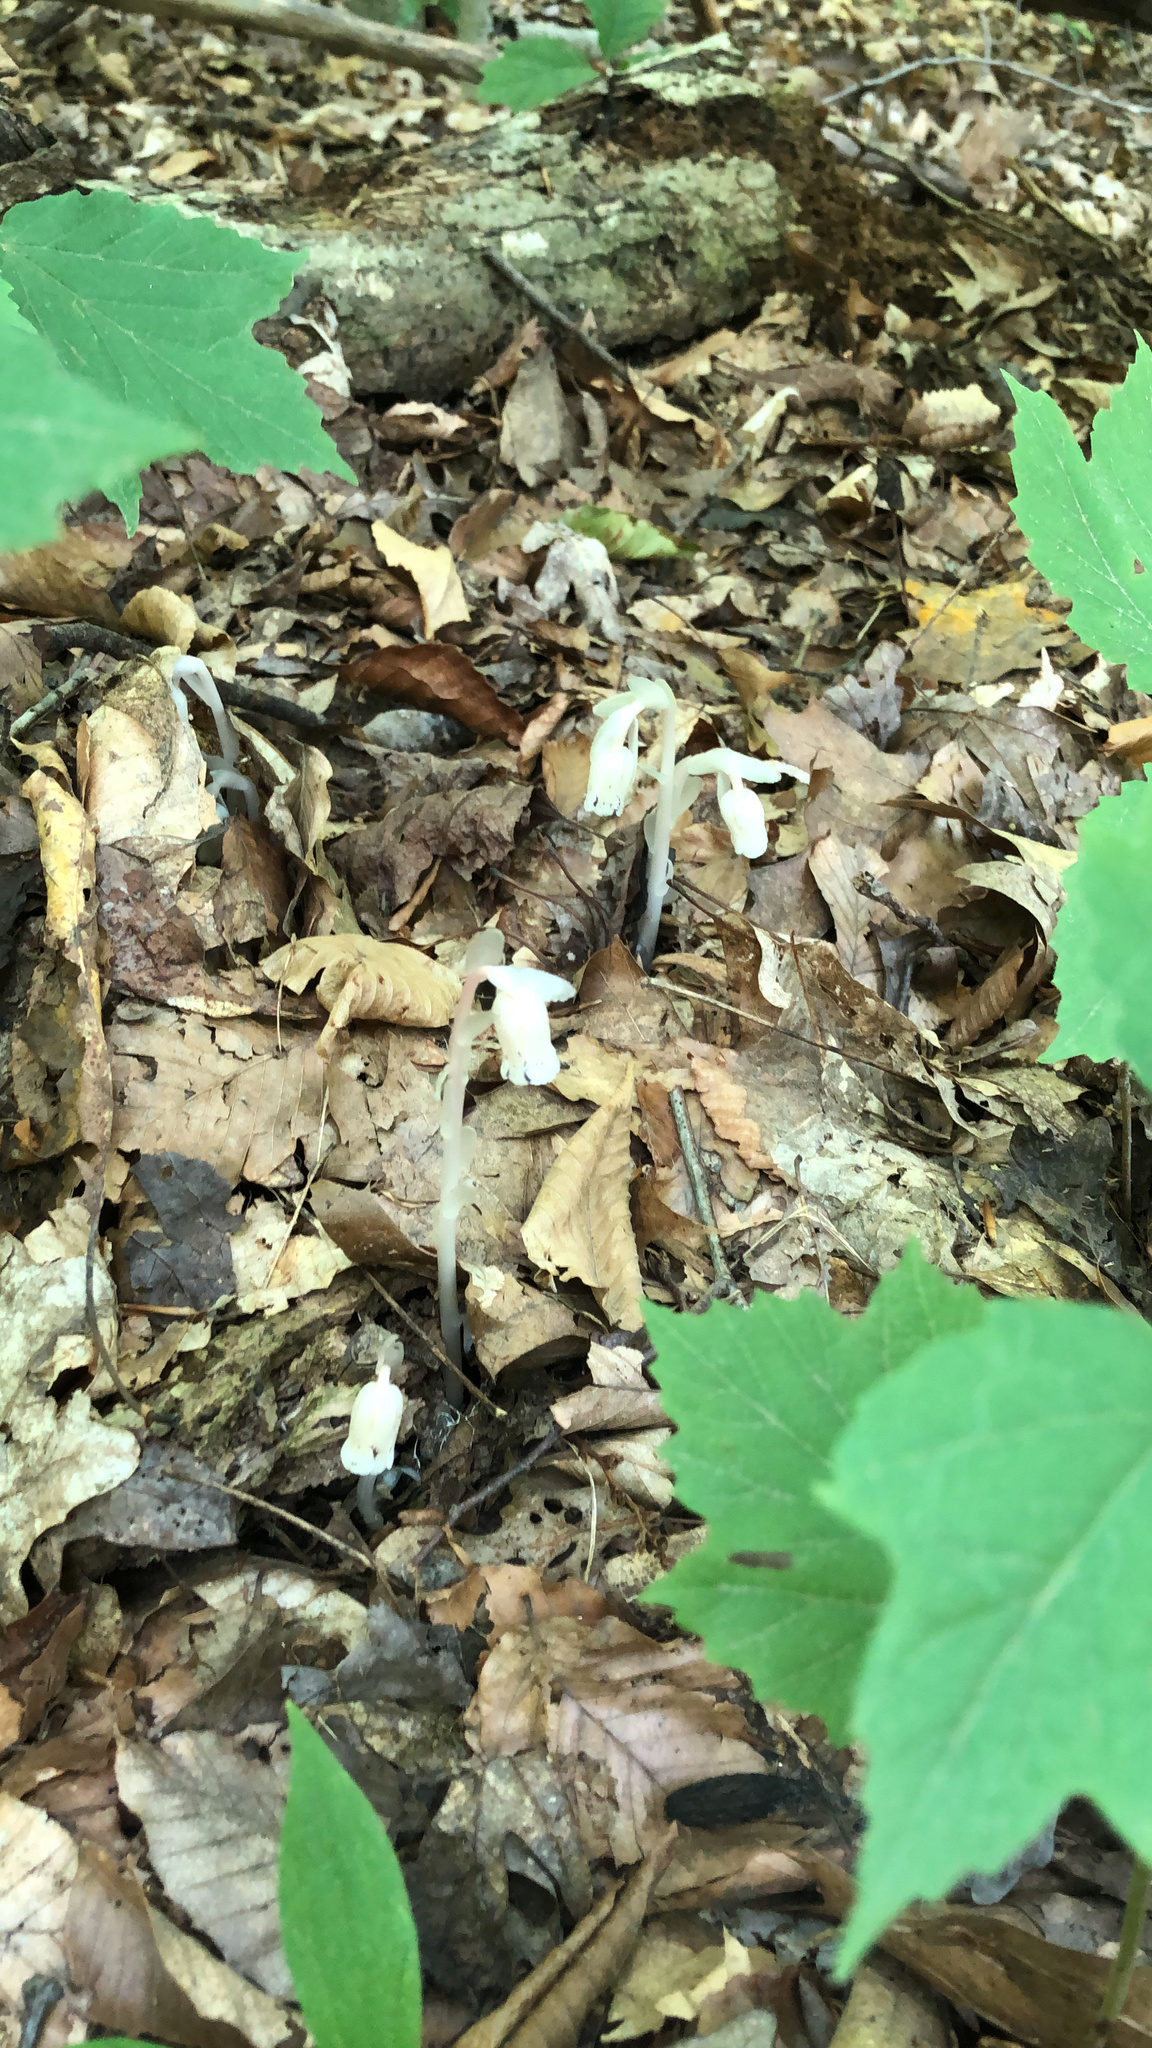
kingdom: Plantae
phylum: Tracheophyta
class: Magnoliopsida
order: Ericales
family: Ericaceae
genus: Monotropa
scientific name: Monotropa uniflora
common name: Convulsion root
